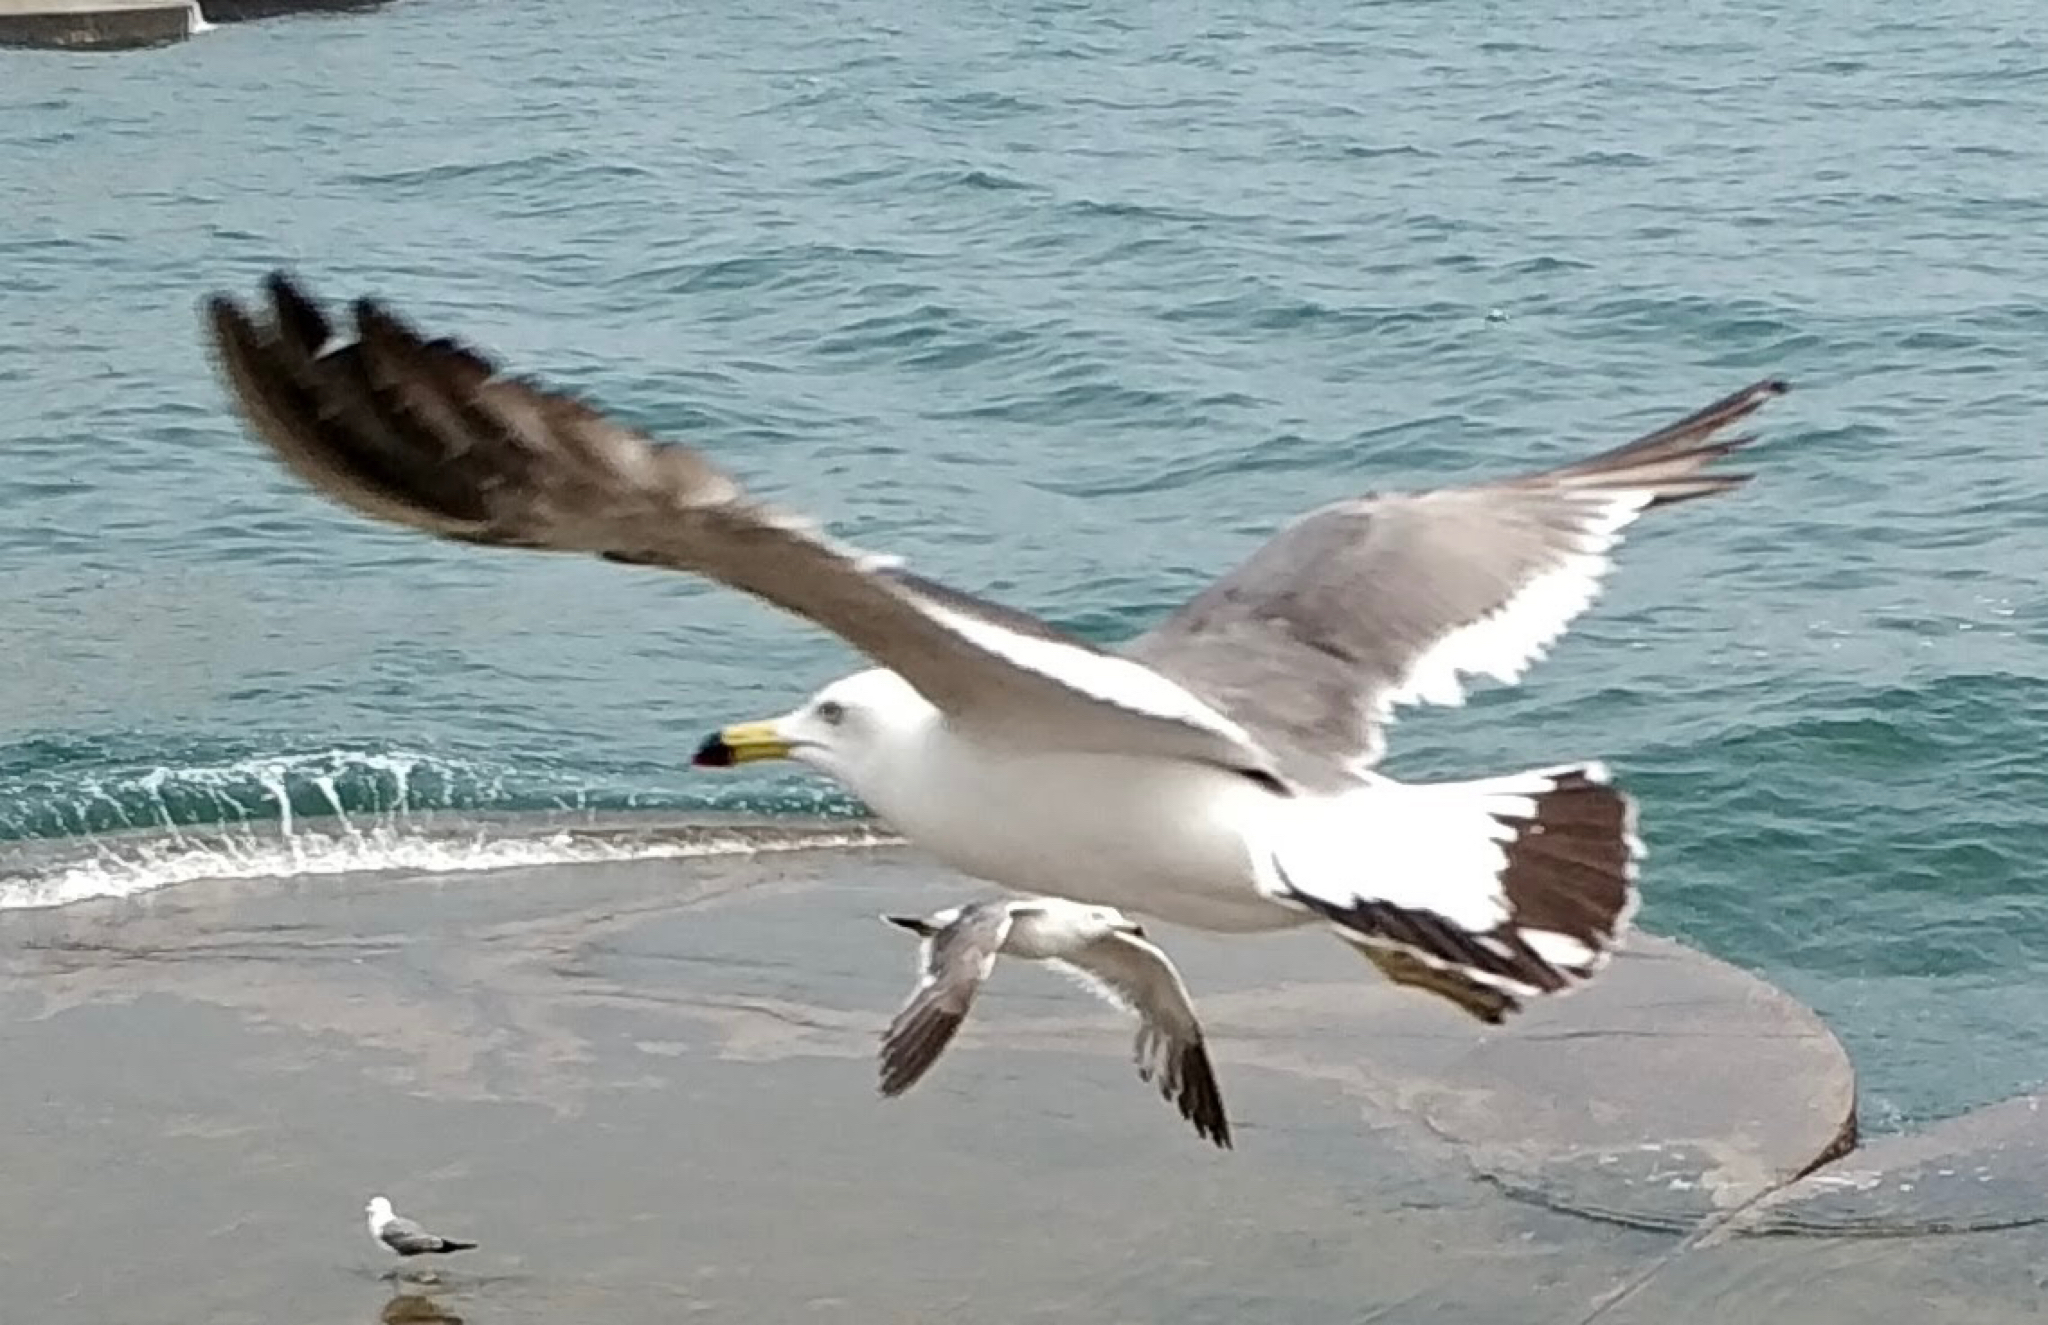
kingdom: Animalia
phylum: Chordata
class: Aves
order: Charadriiformes
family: Laridae
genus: Larus
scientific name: Larus crassirostris
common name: Black-tailed gull
